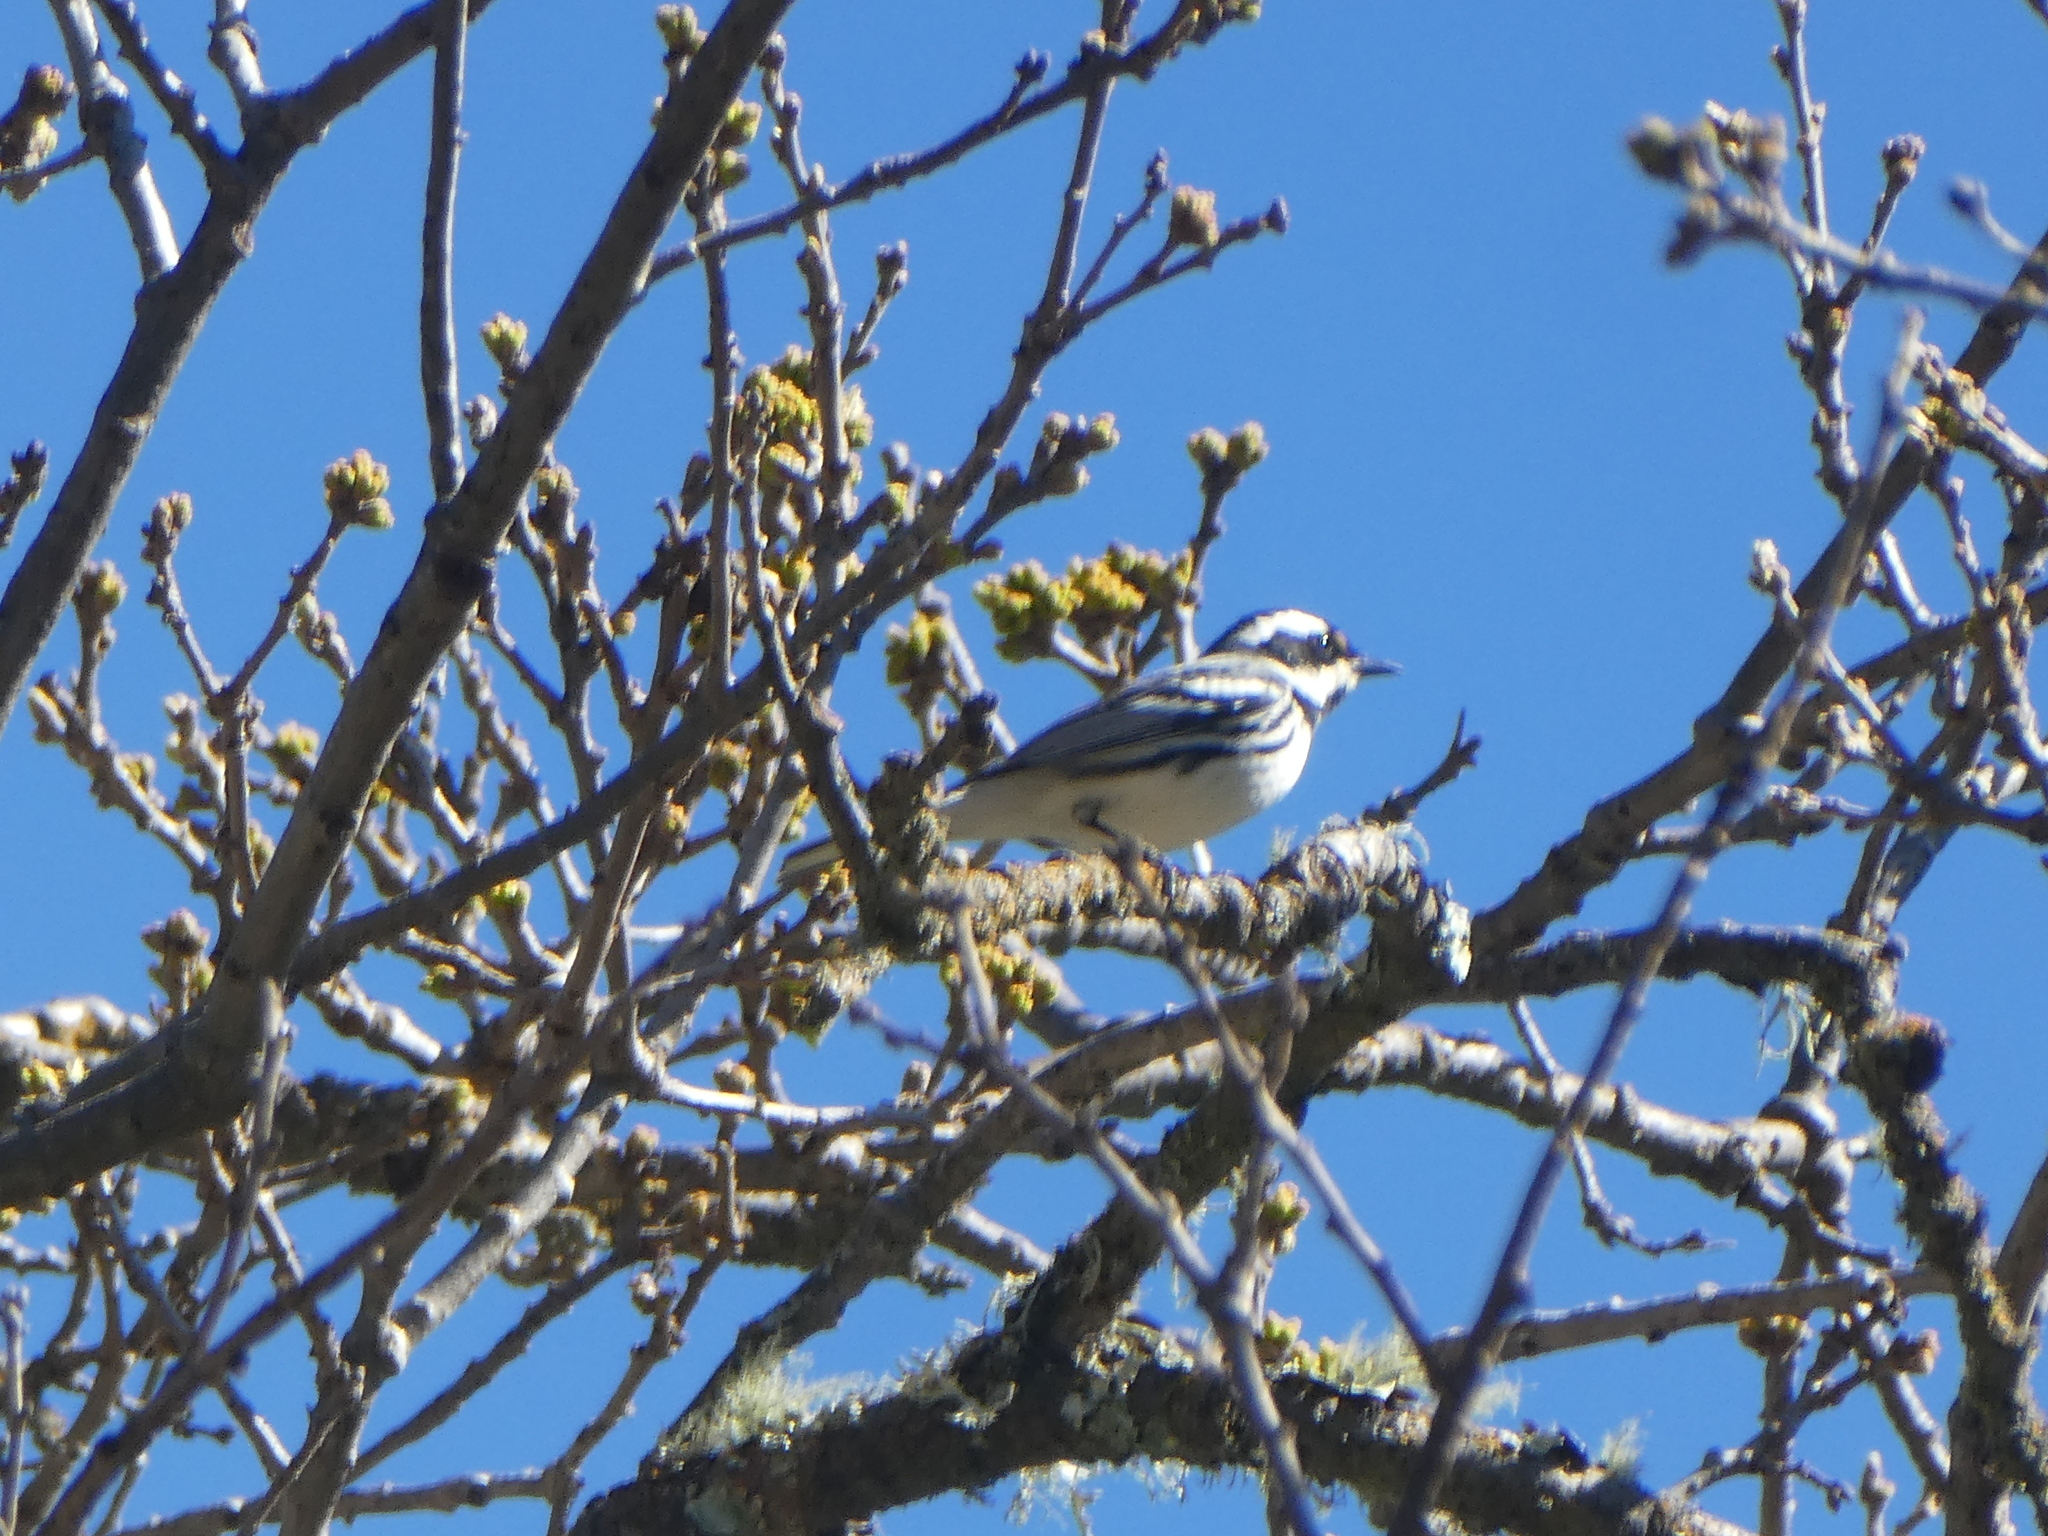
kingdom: Animalia
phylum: Chordata
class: Aves
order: Passeriformes
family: Parulidae
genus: Setophaga
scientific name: Setophaga nigrescens
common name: Black-throated gray warbler
